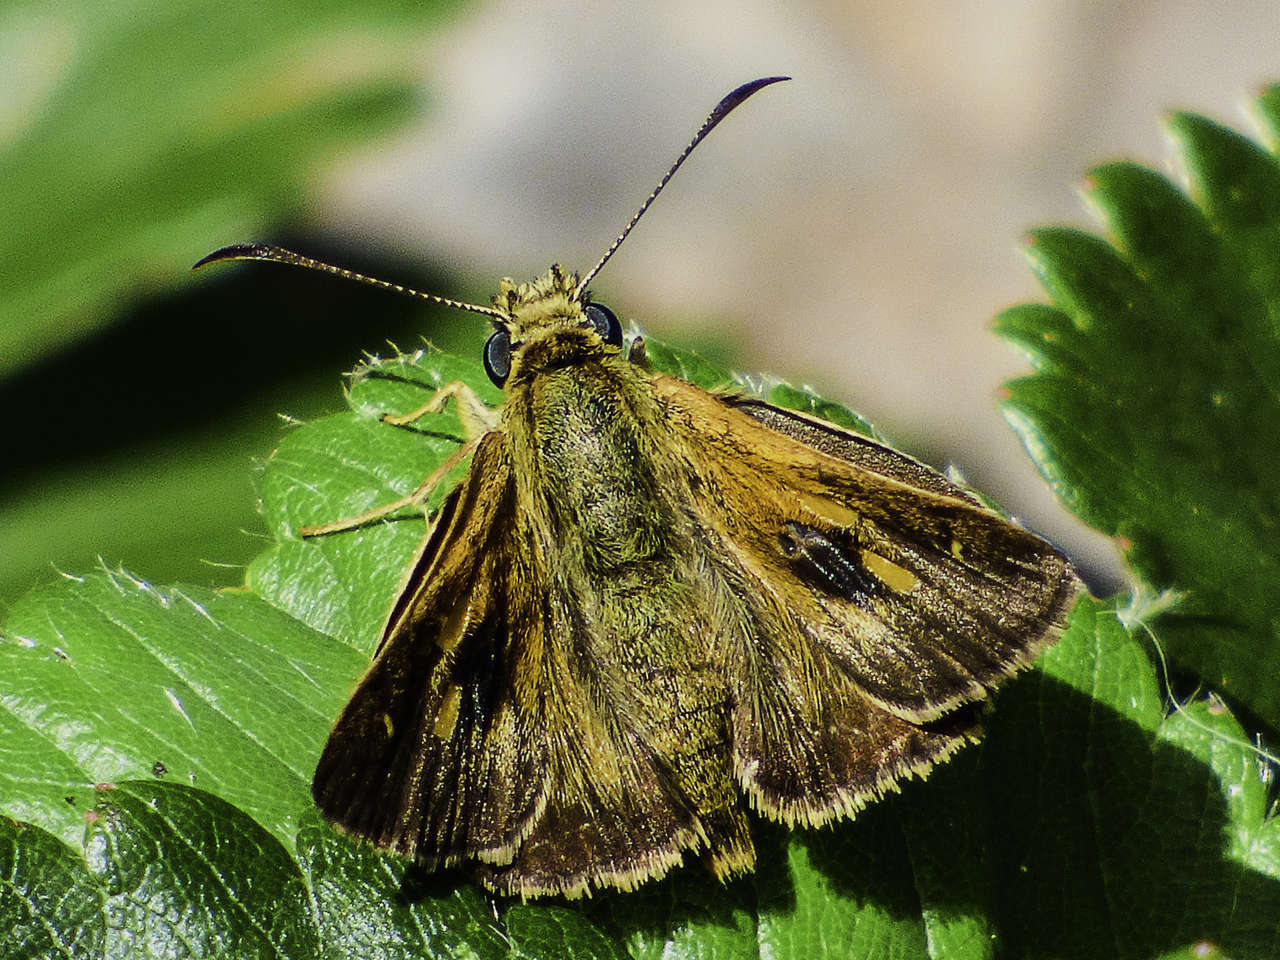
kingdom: Animalia
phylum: Arthropoda
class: Insecta
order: Lepidoptera
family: Hesperiidae
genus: Toxidia
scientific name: Toxidia
